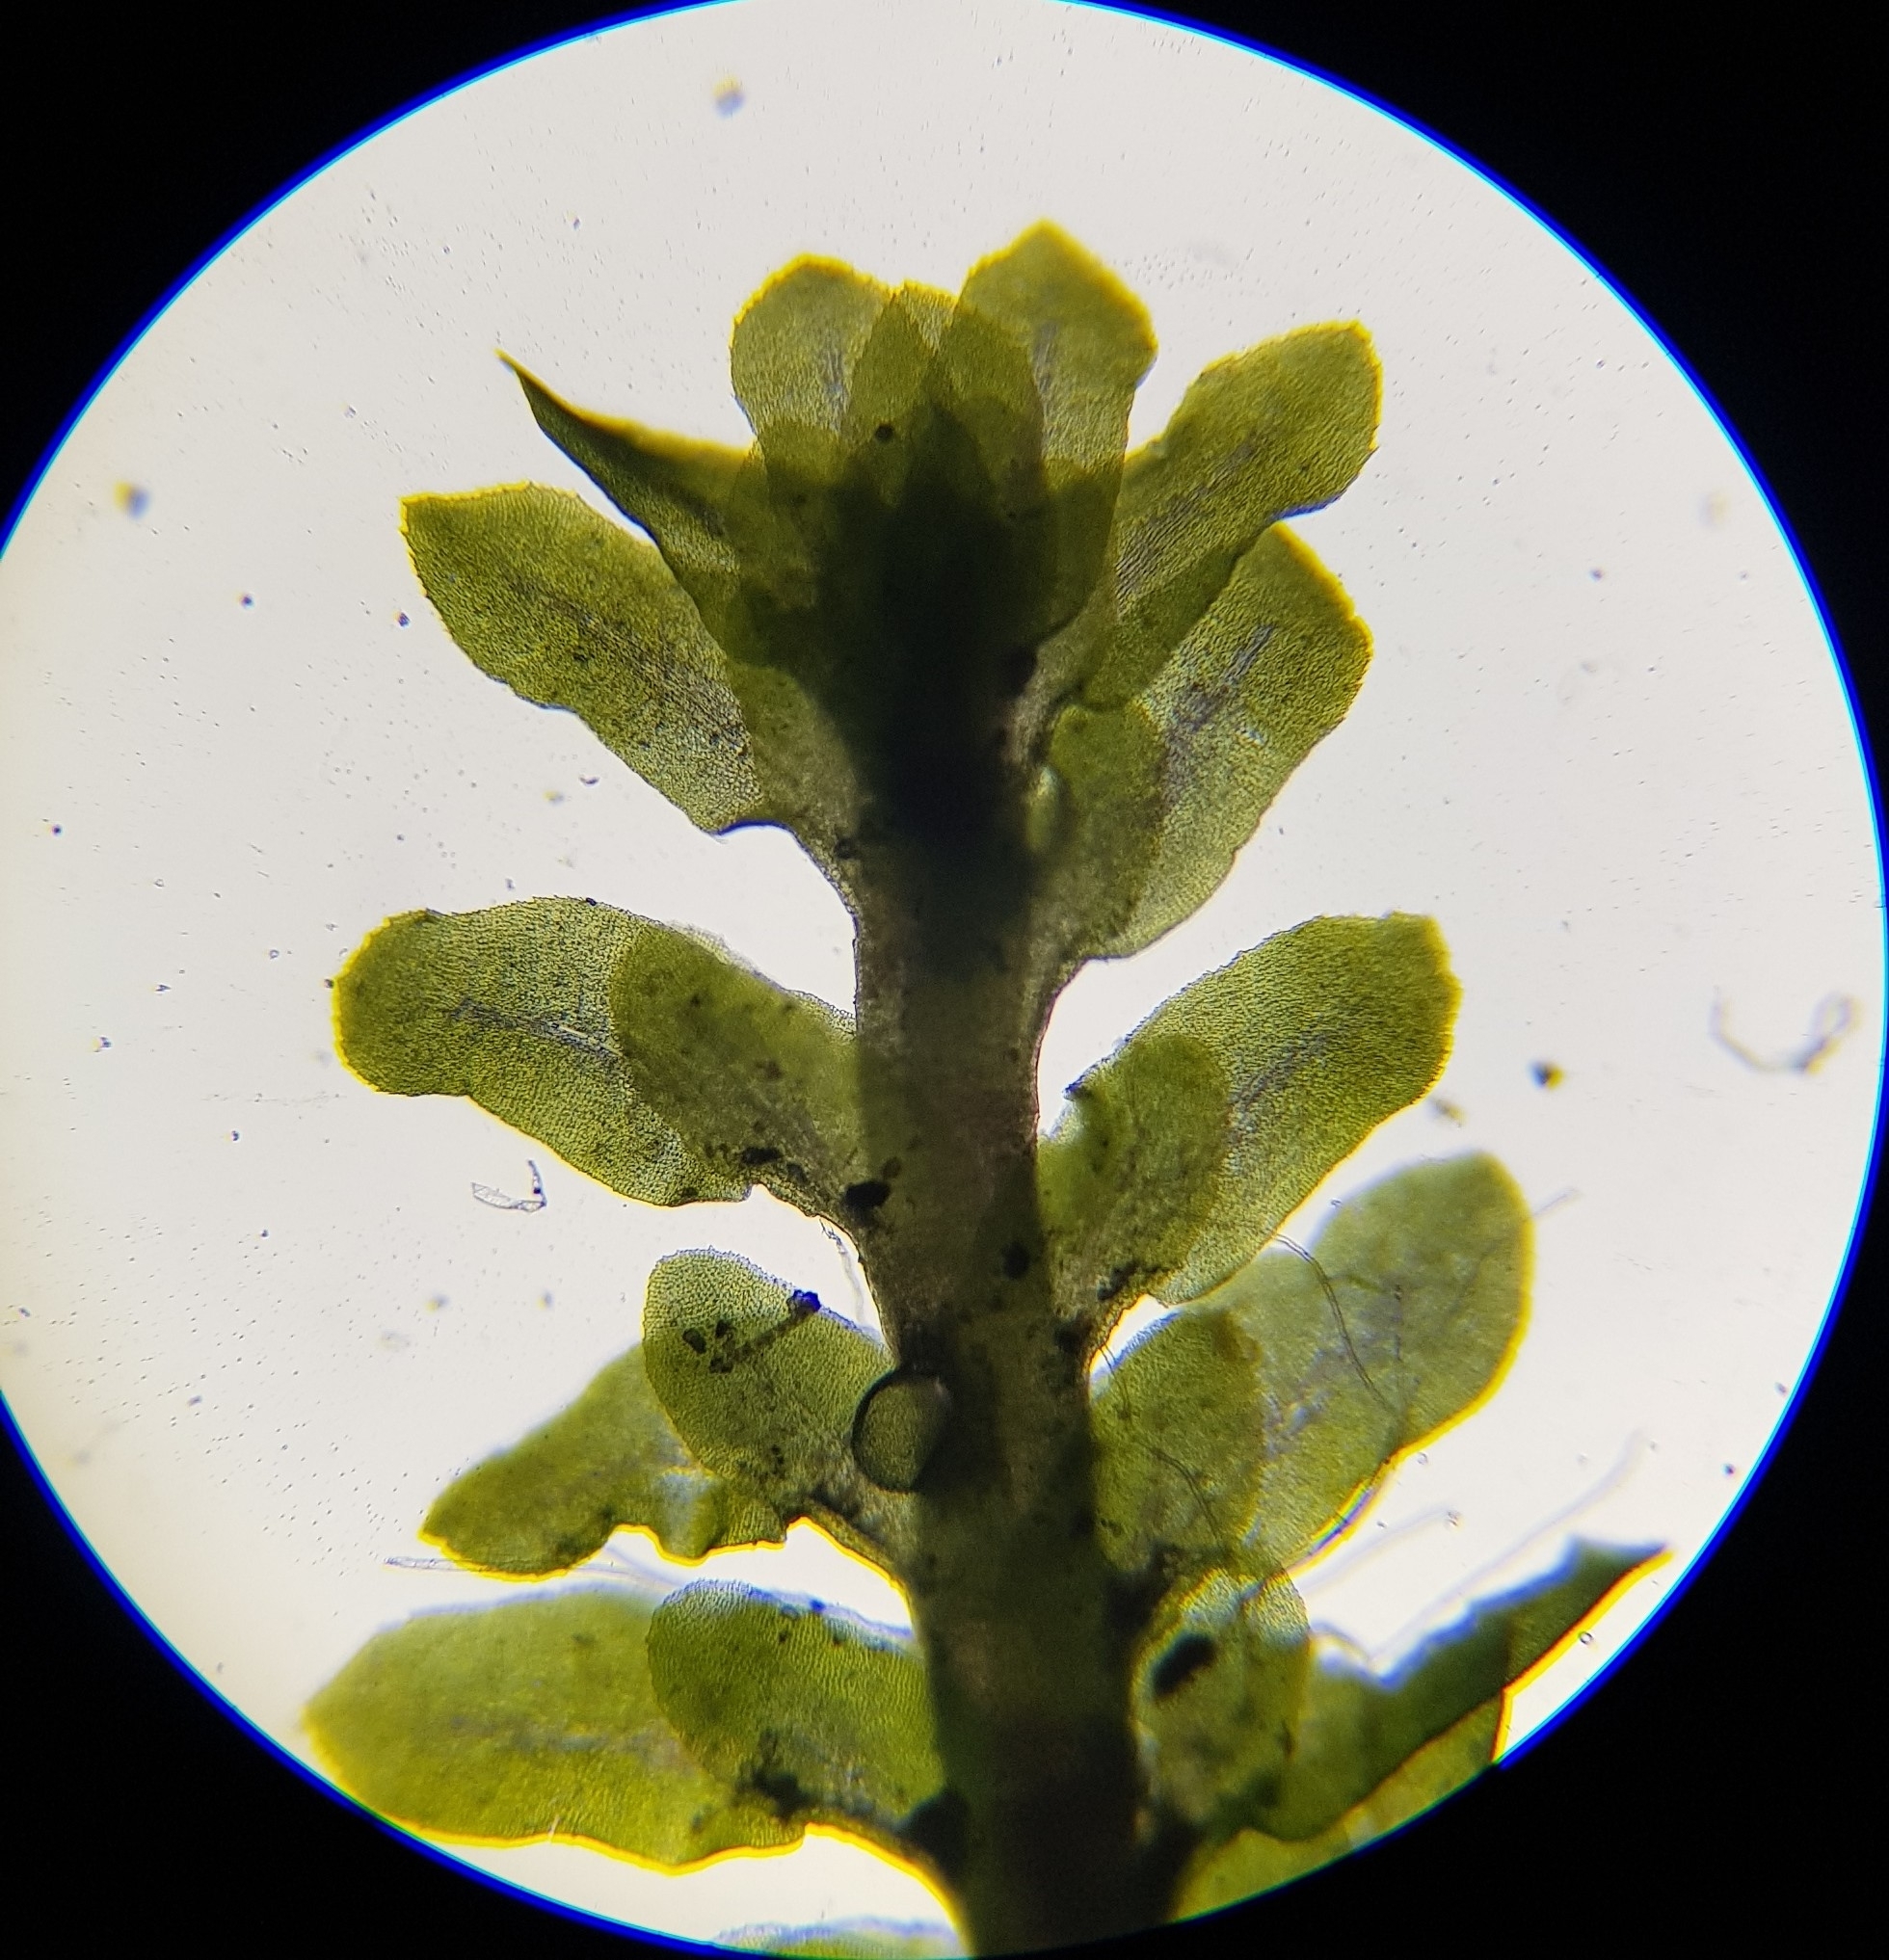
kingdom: Plantae
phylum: Marchantiophyta
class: Jungermanniopsida
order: Jungermanniales
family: Scapaniaceae
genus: Diplophyllum
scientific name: Diplophyllum albicans
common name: White earwort
